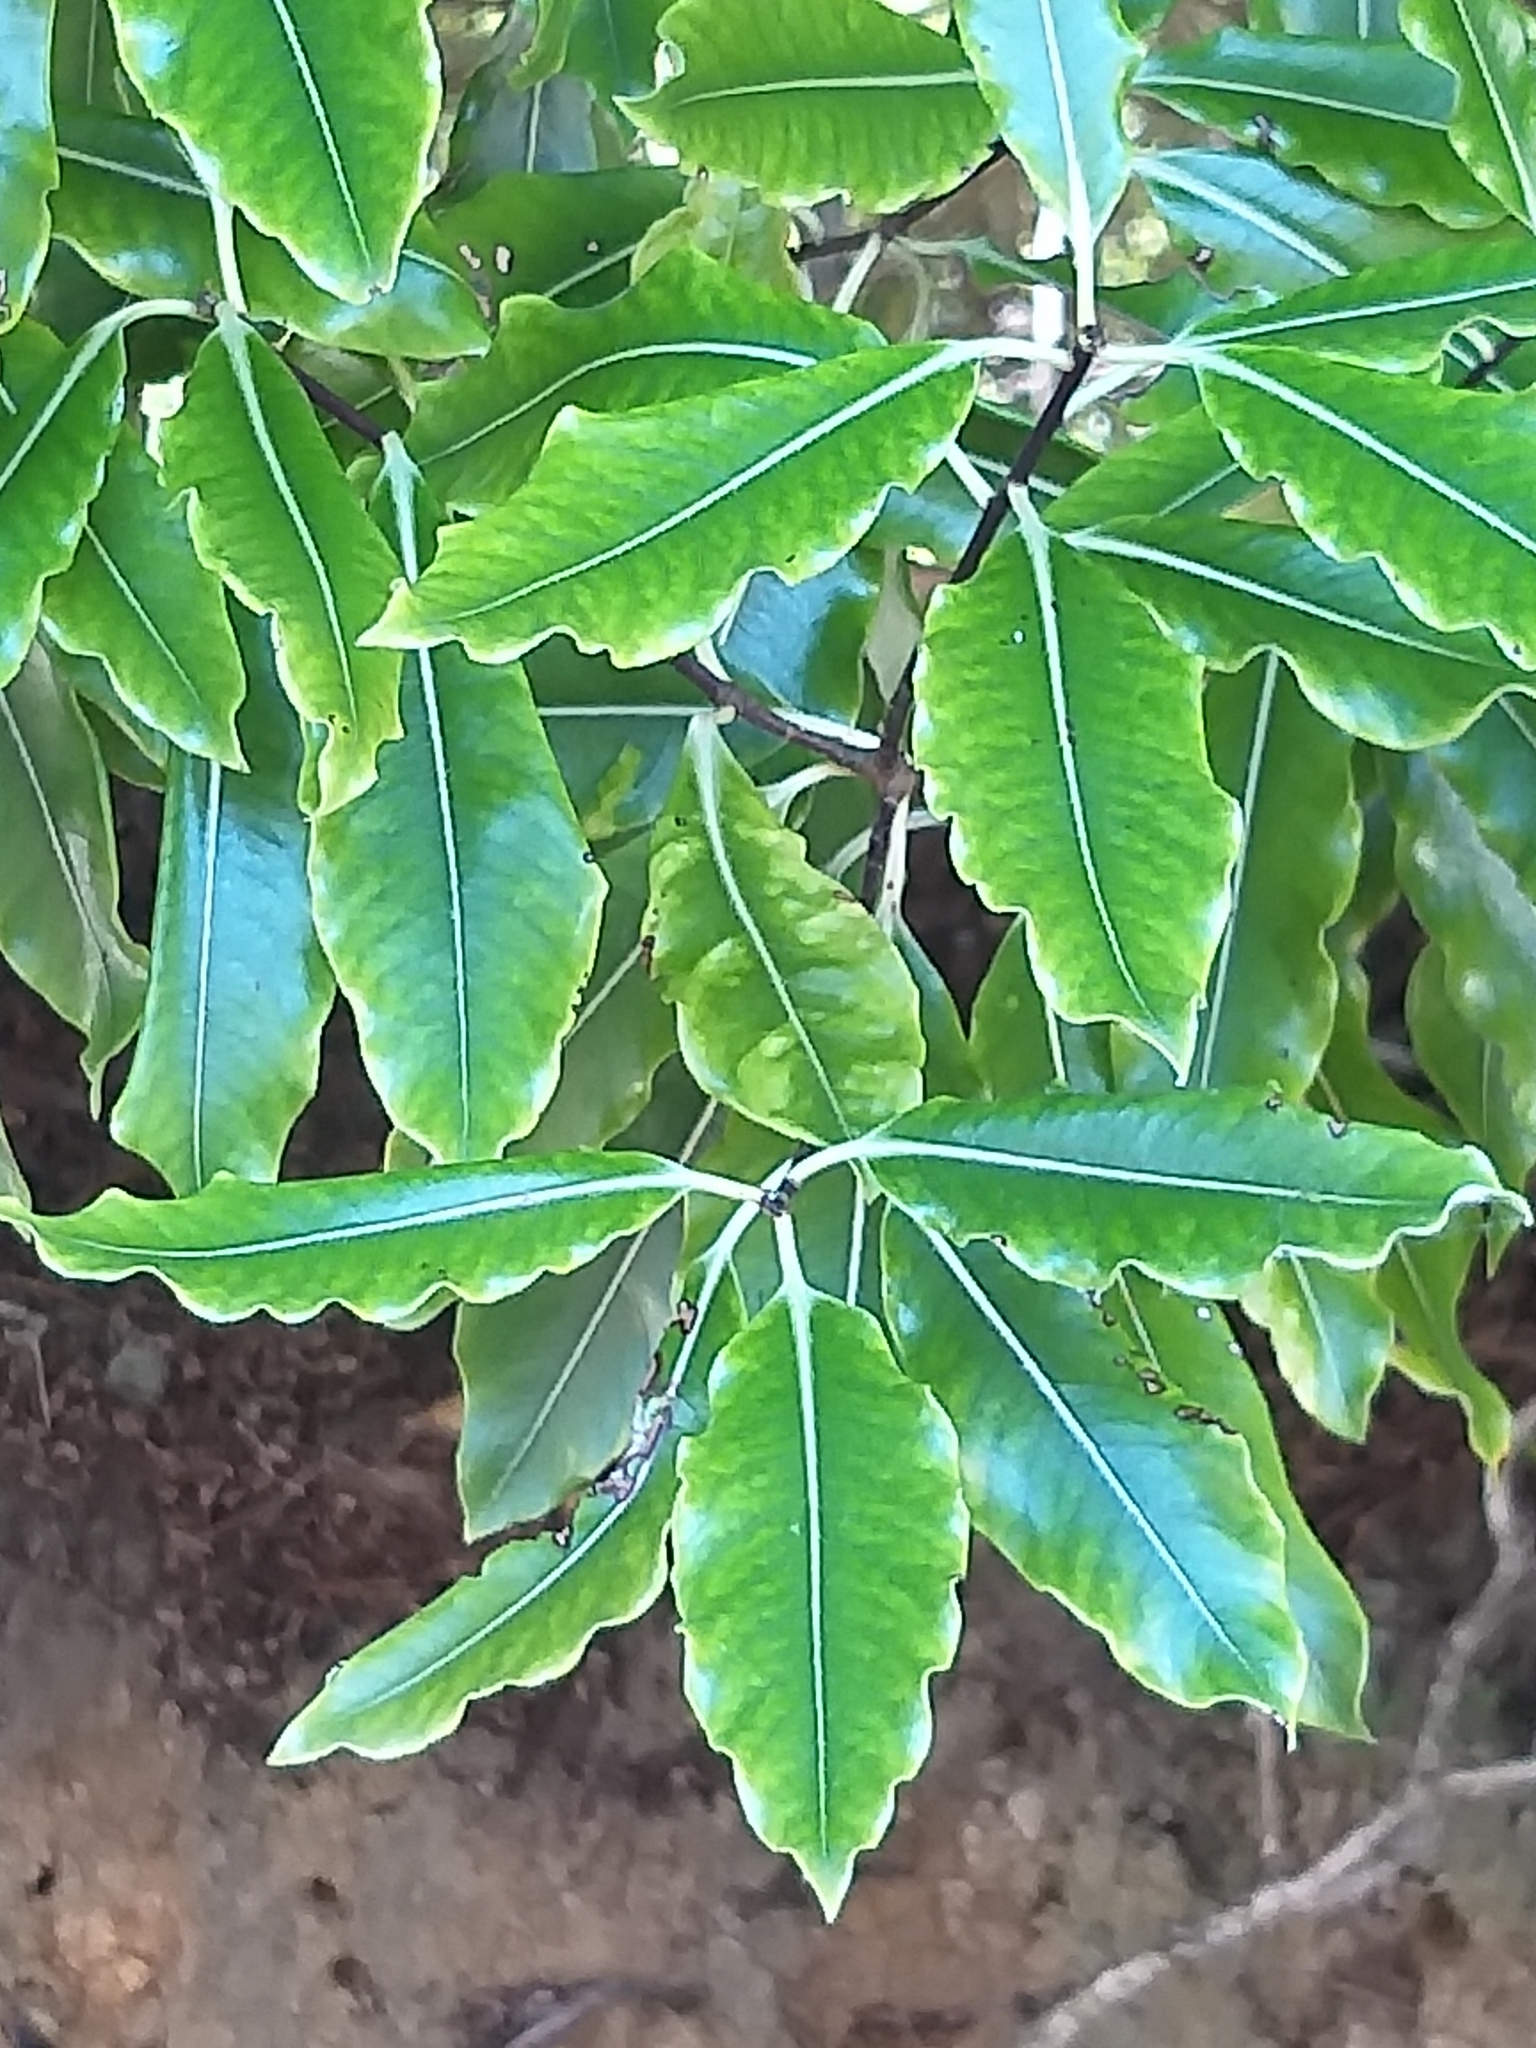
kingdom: Plantae
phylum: Tracheophyta
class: Magnoliopsida
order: Apiales
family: Pittosporaceae
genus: Pittosporum
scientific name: Pittosporum eugenioides
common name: Lemonwood
